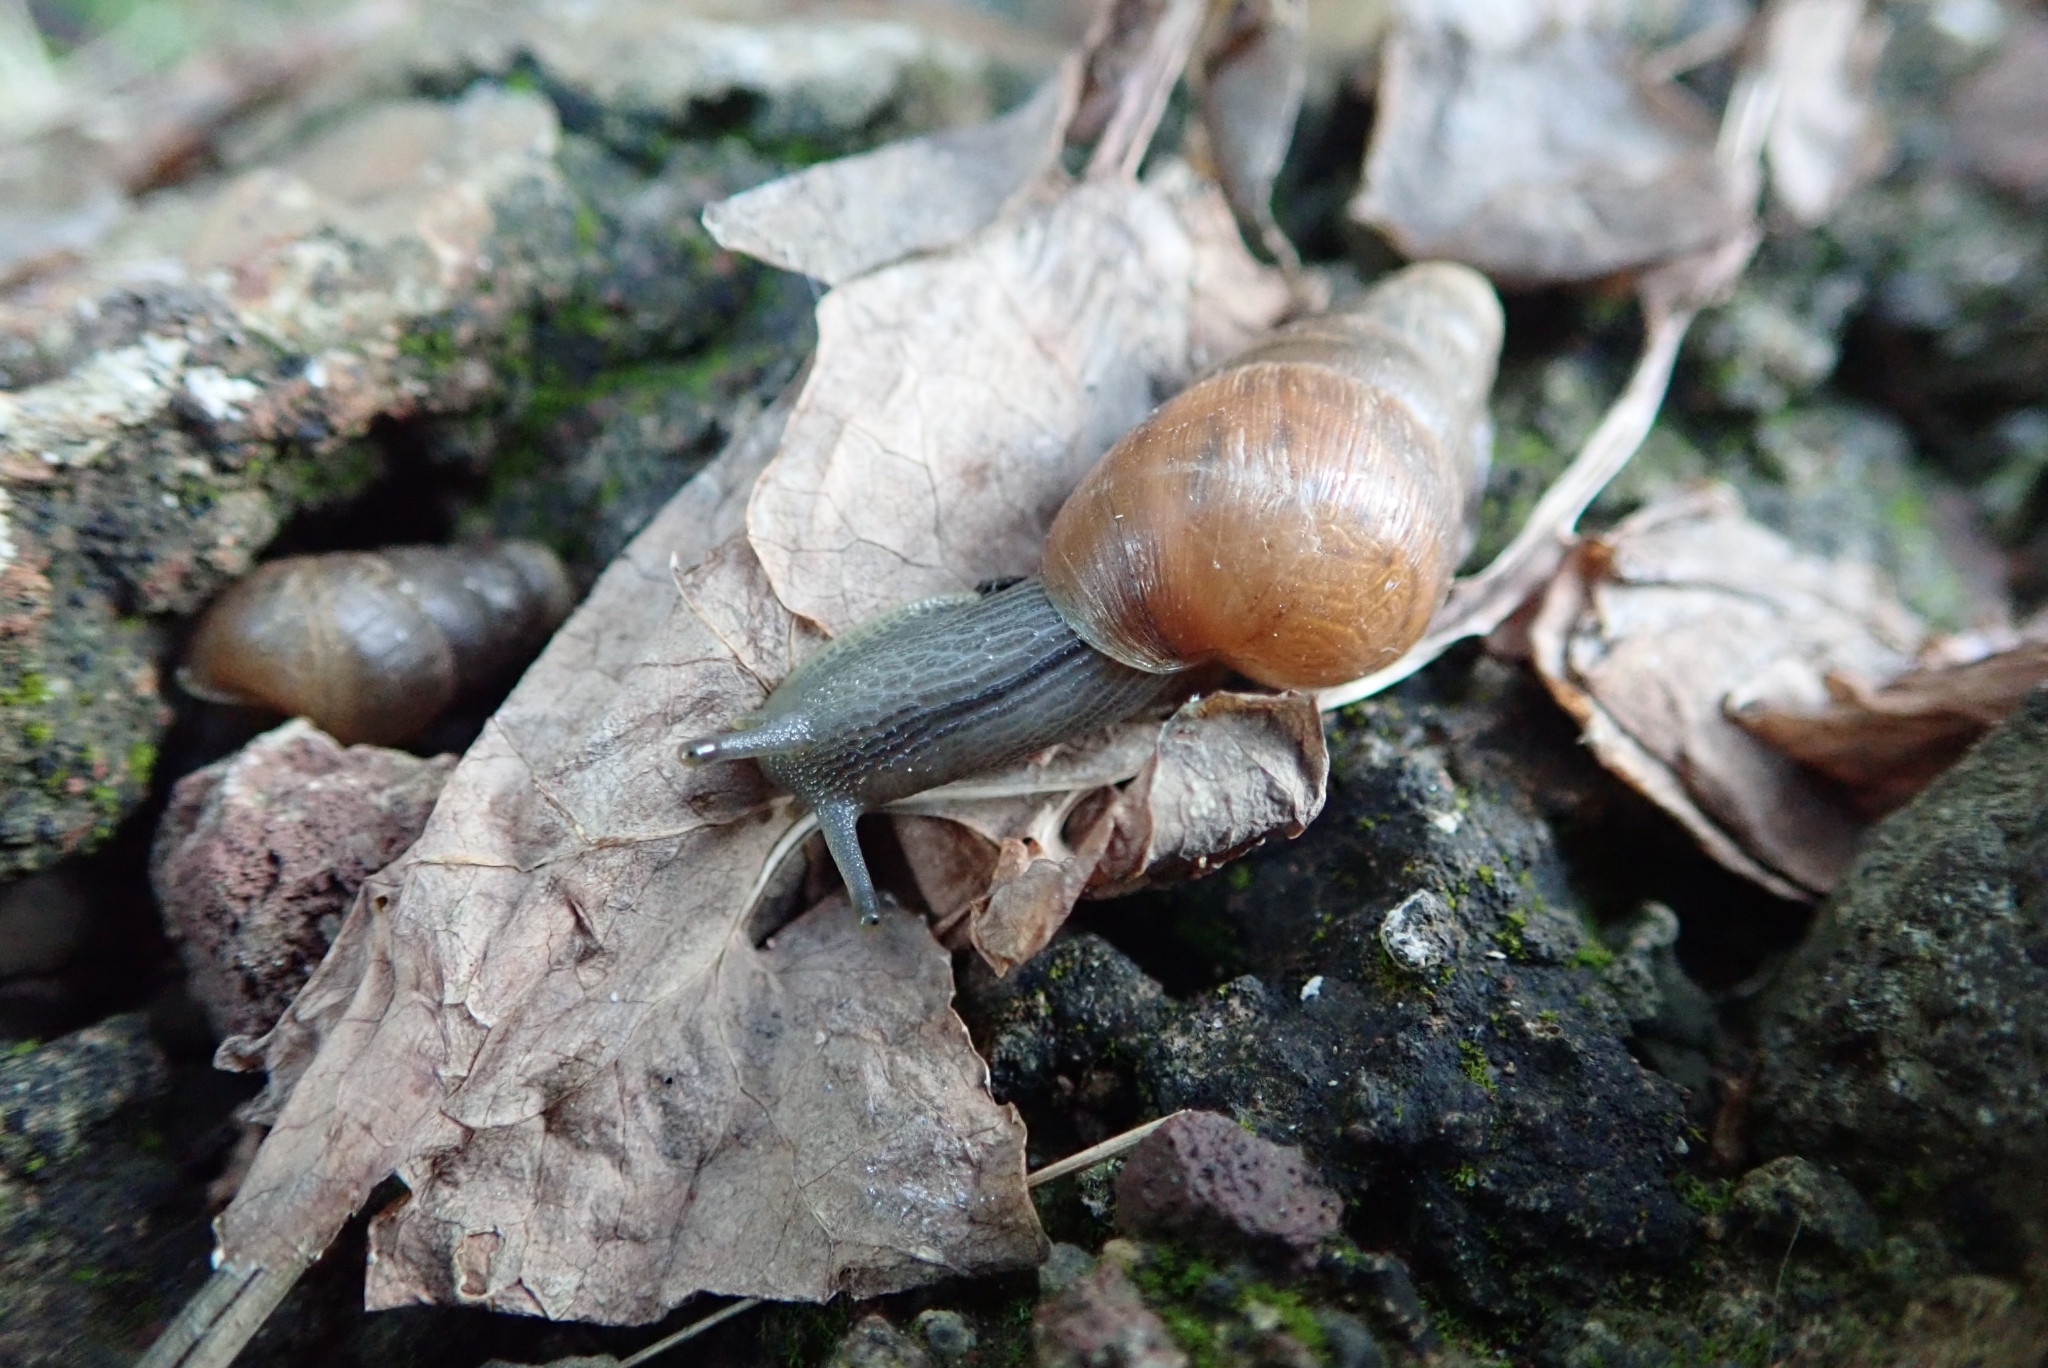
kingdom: Animalia
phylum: Mollusca
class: Gastropoda
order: Stylommatophora
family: Achatinidae
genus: Rumina
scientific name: Rumina decollata
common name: Decollate snail
